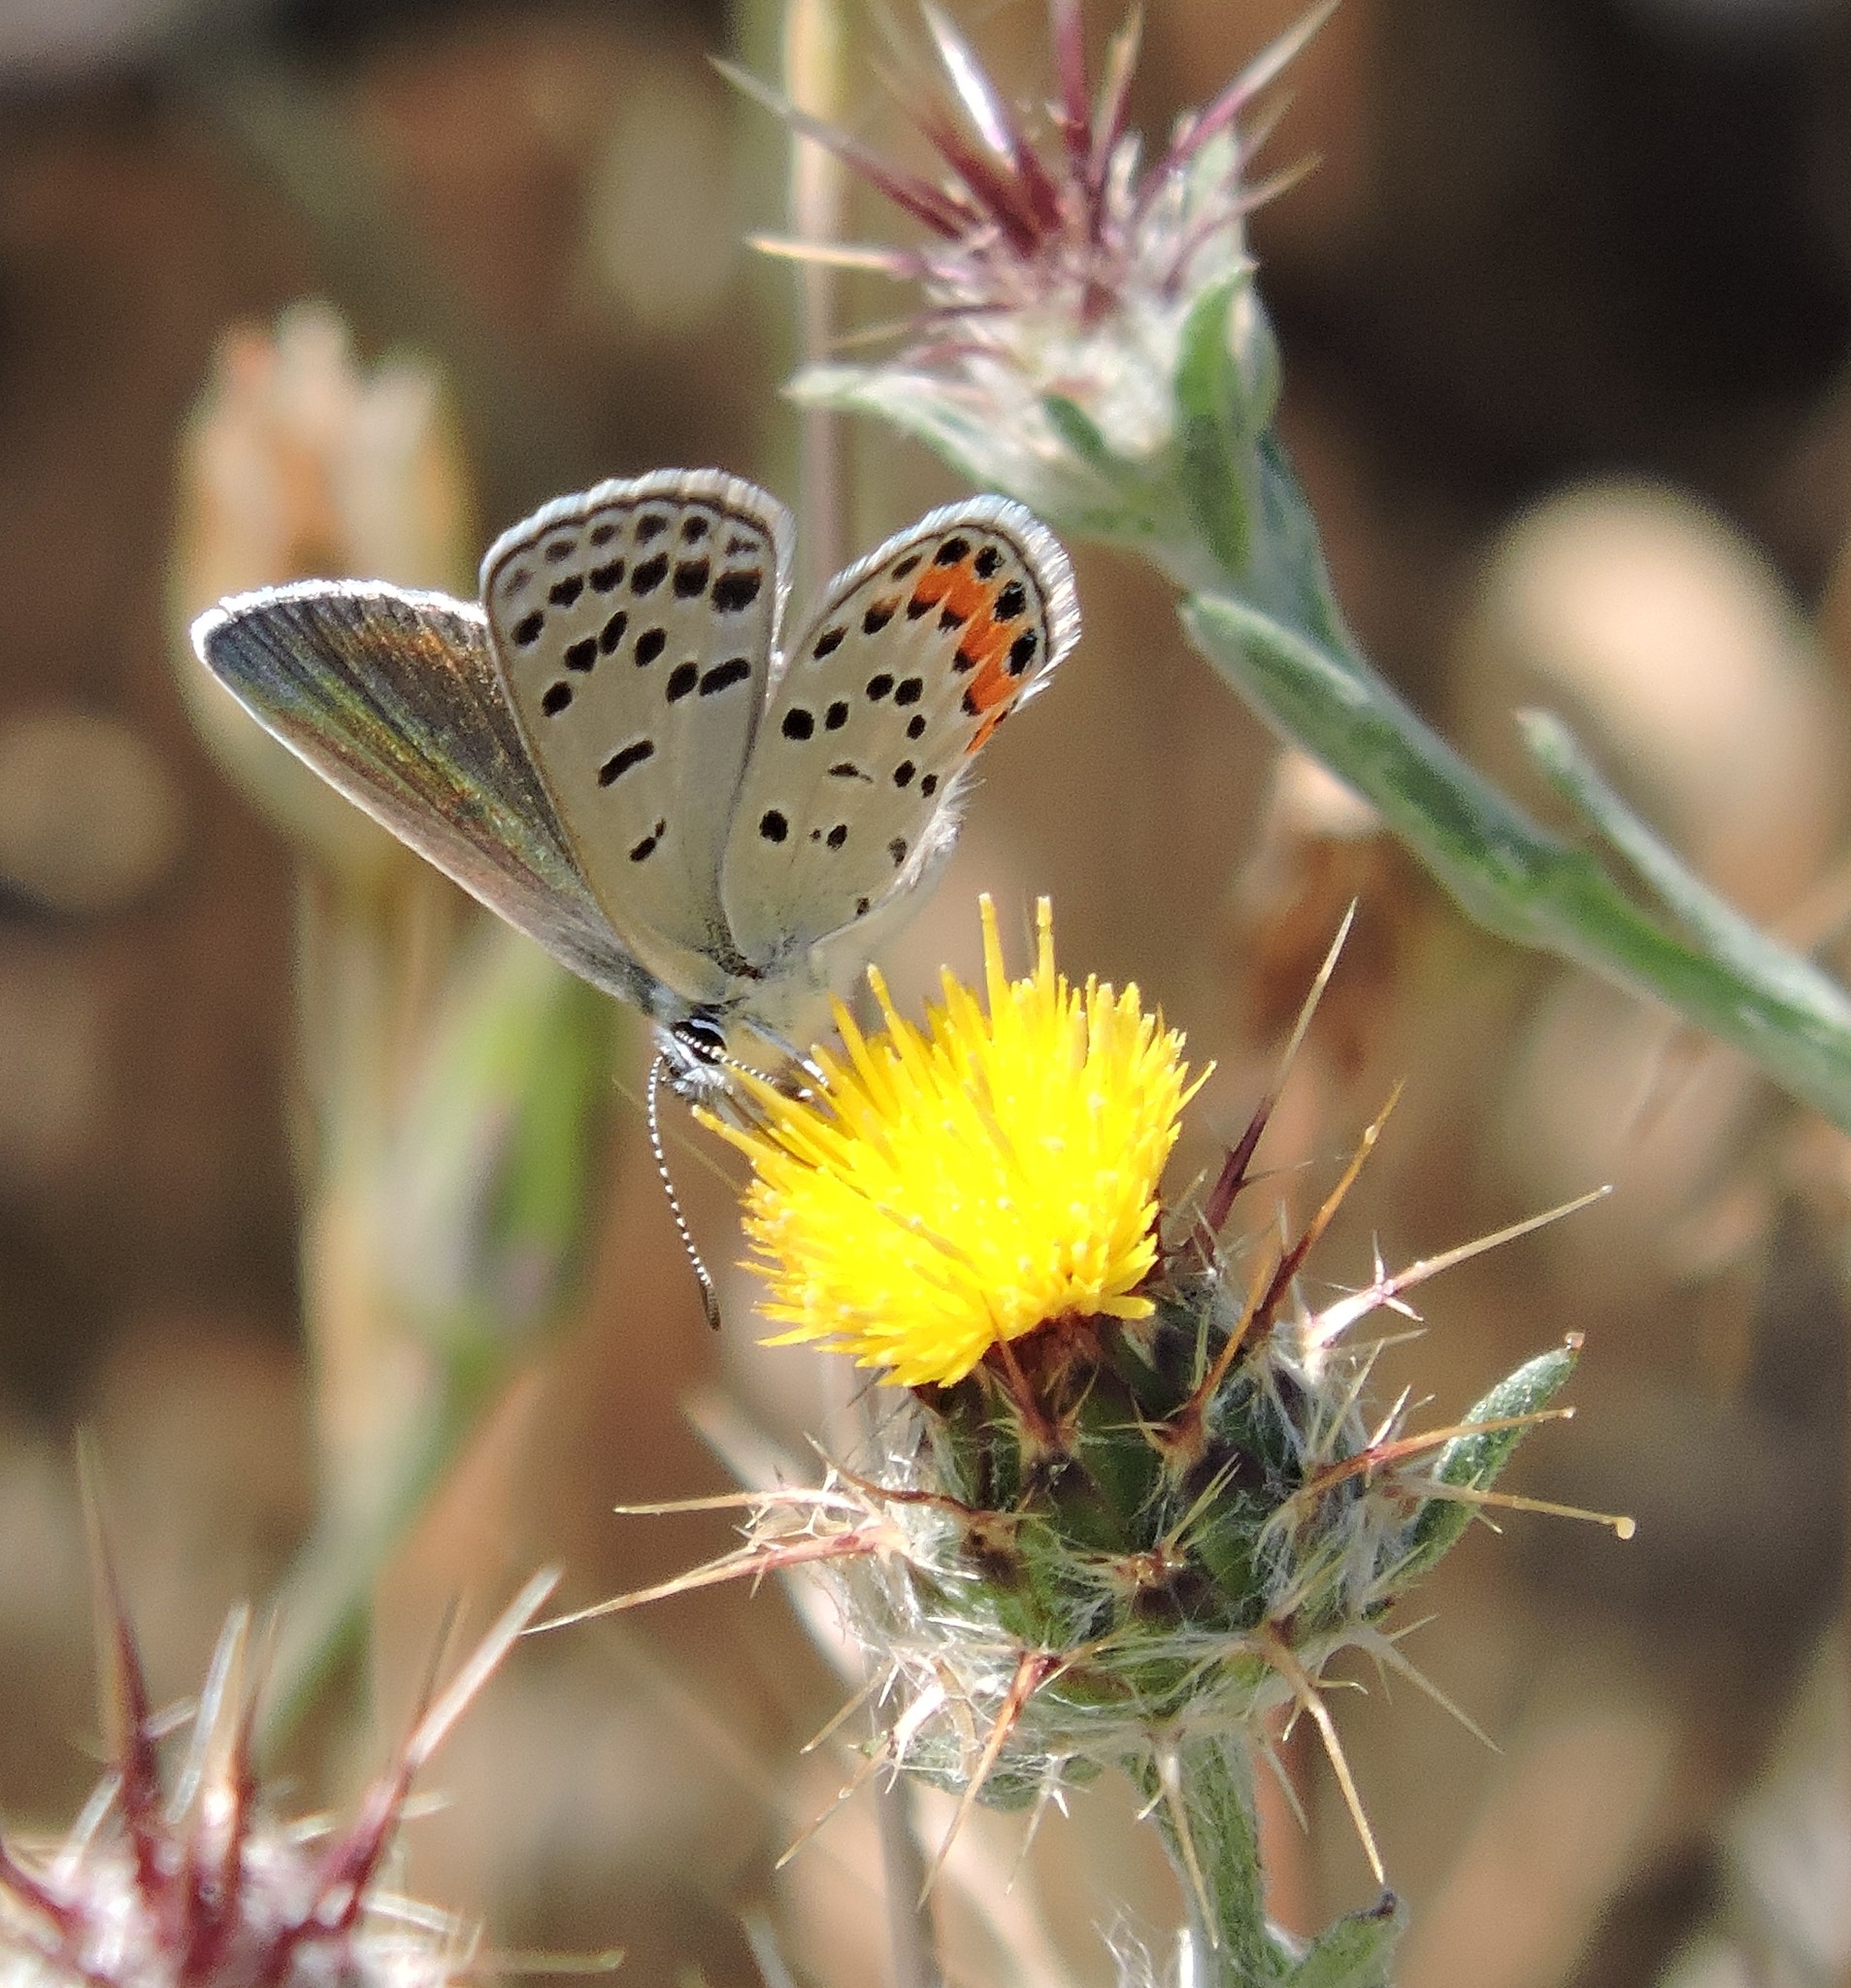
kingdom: Animalia
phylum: Arthropoda
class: Insecta
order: Lepidoptera
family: Lycaenidae
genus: Icaricia
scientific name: Icaricia acmon
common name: Acmon blue
